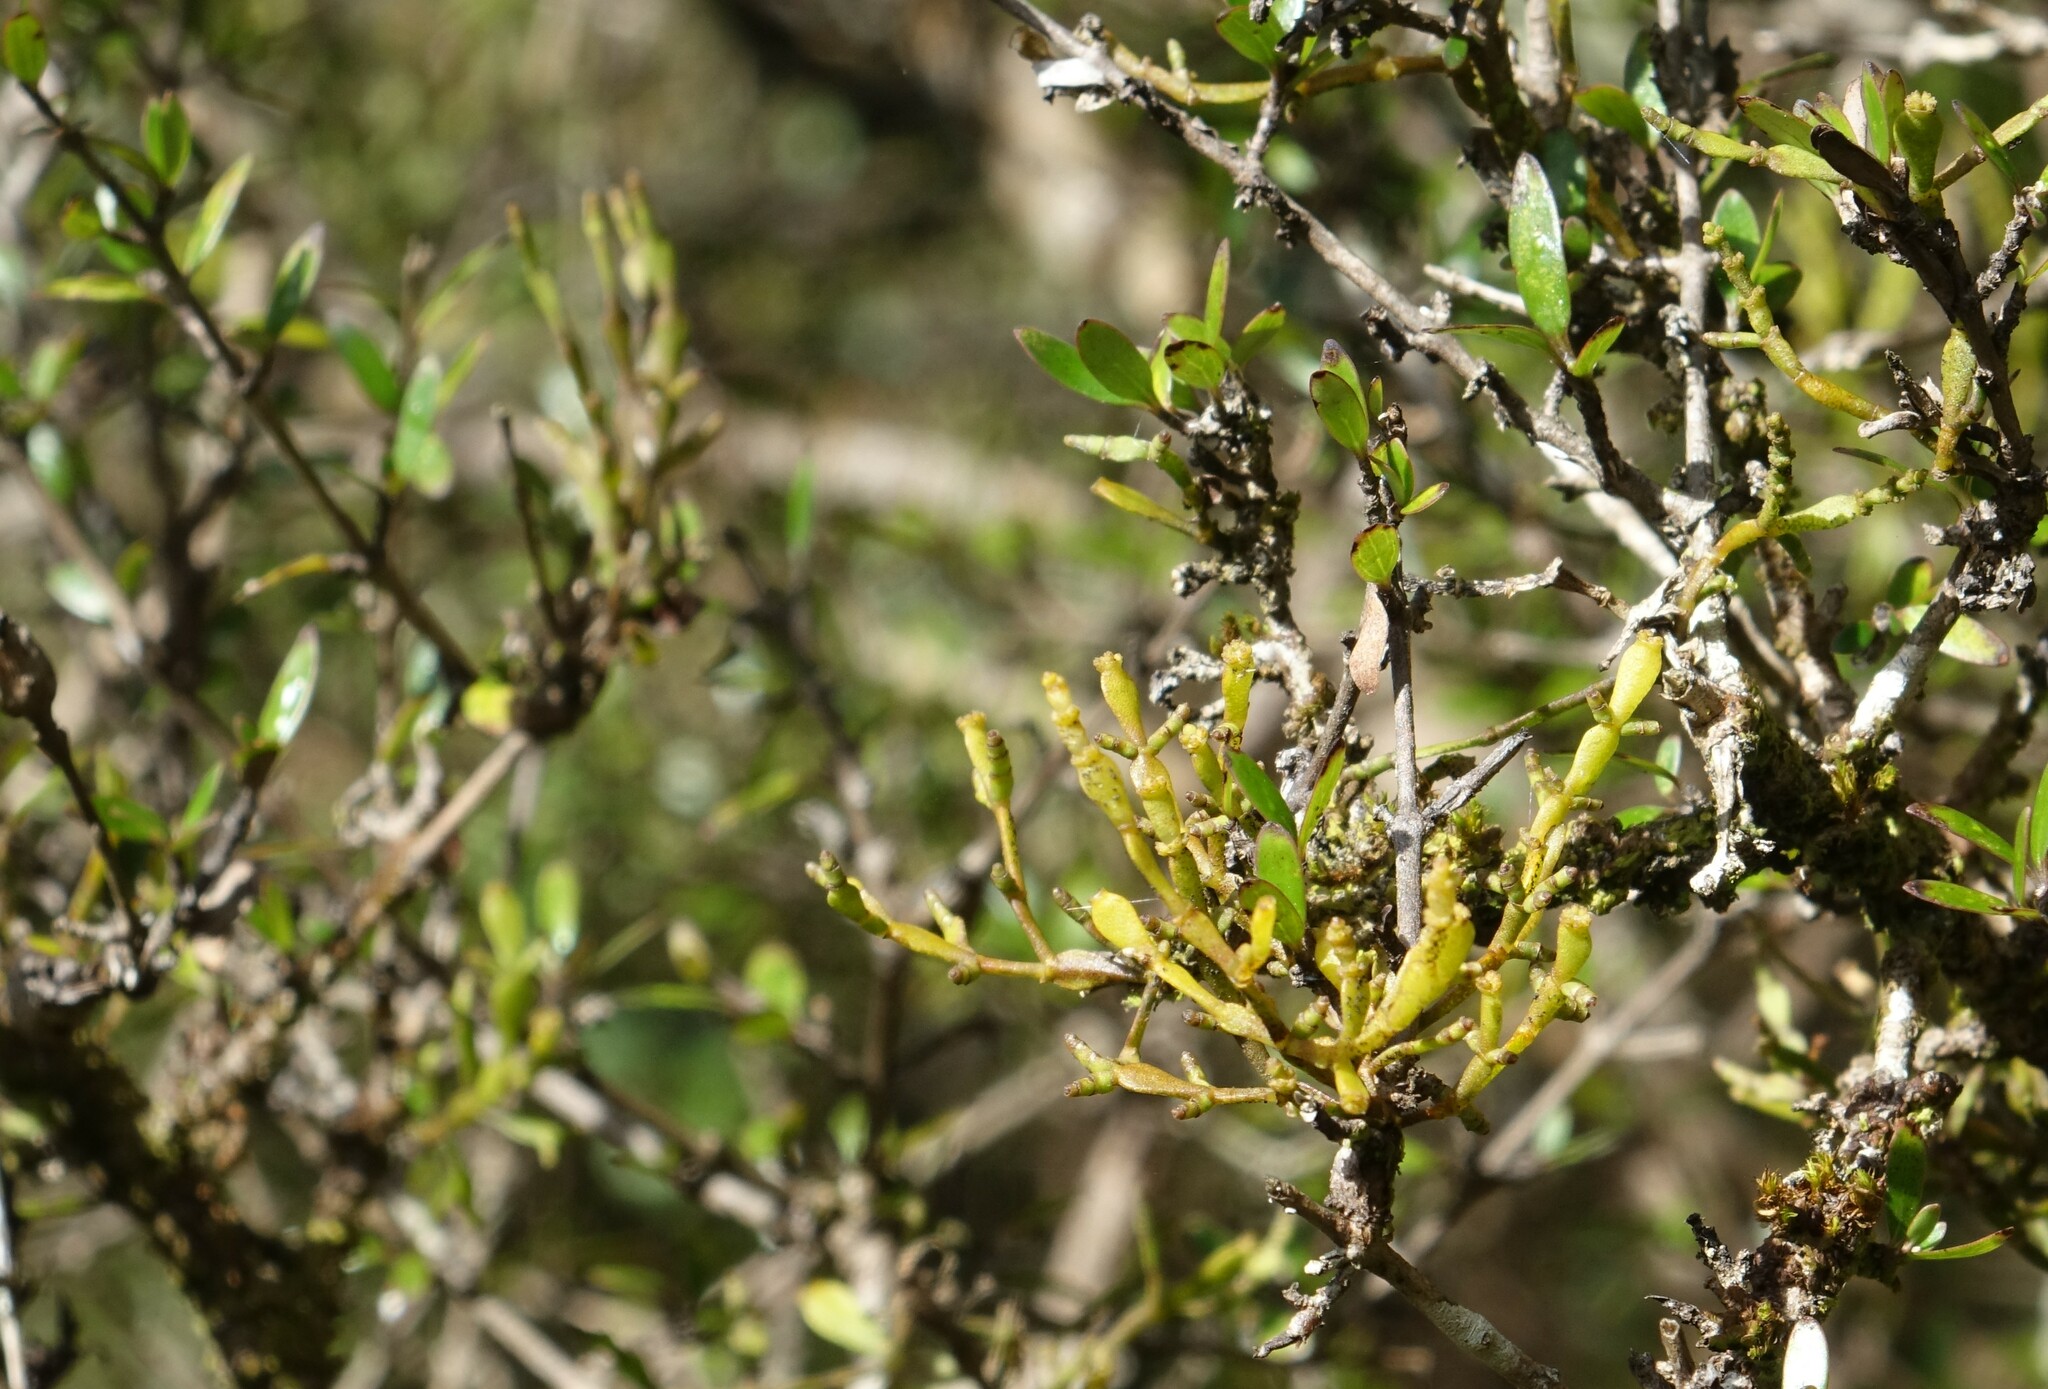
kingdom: Plantae
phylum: Tracheophyta
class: Magnoliopsida
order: Santalales
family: Viscaceae
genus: Korthalsella
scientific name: Korthalsella clavata
